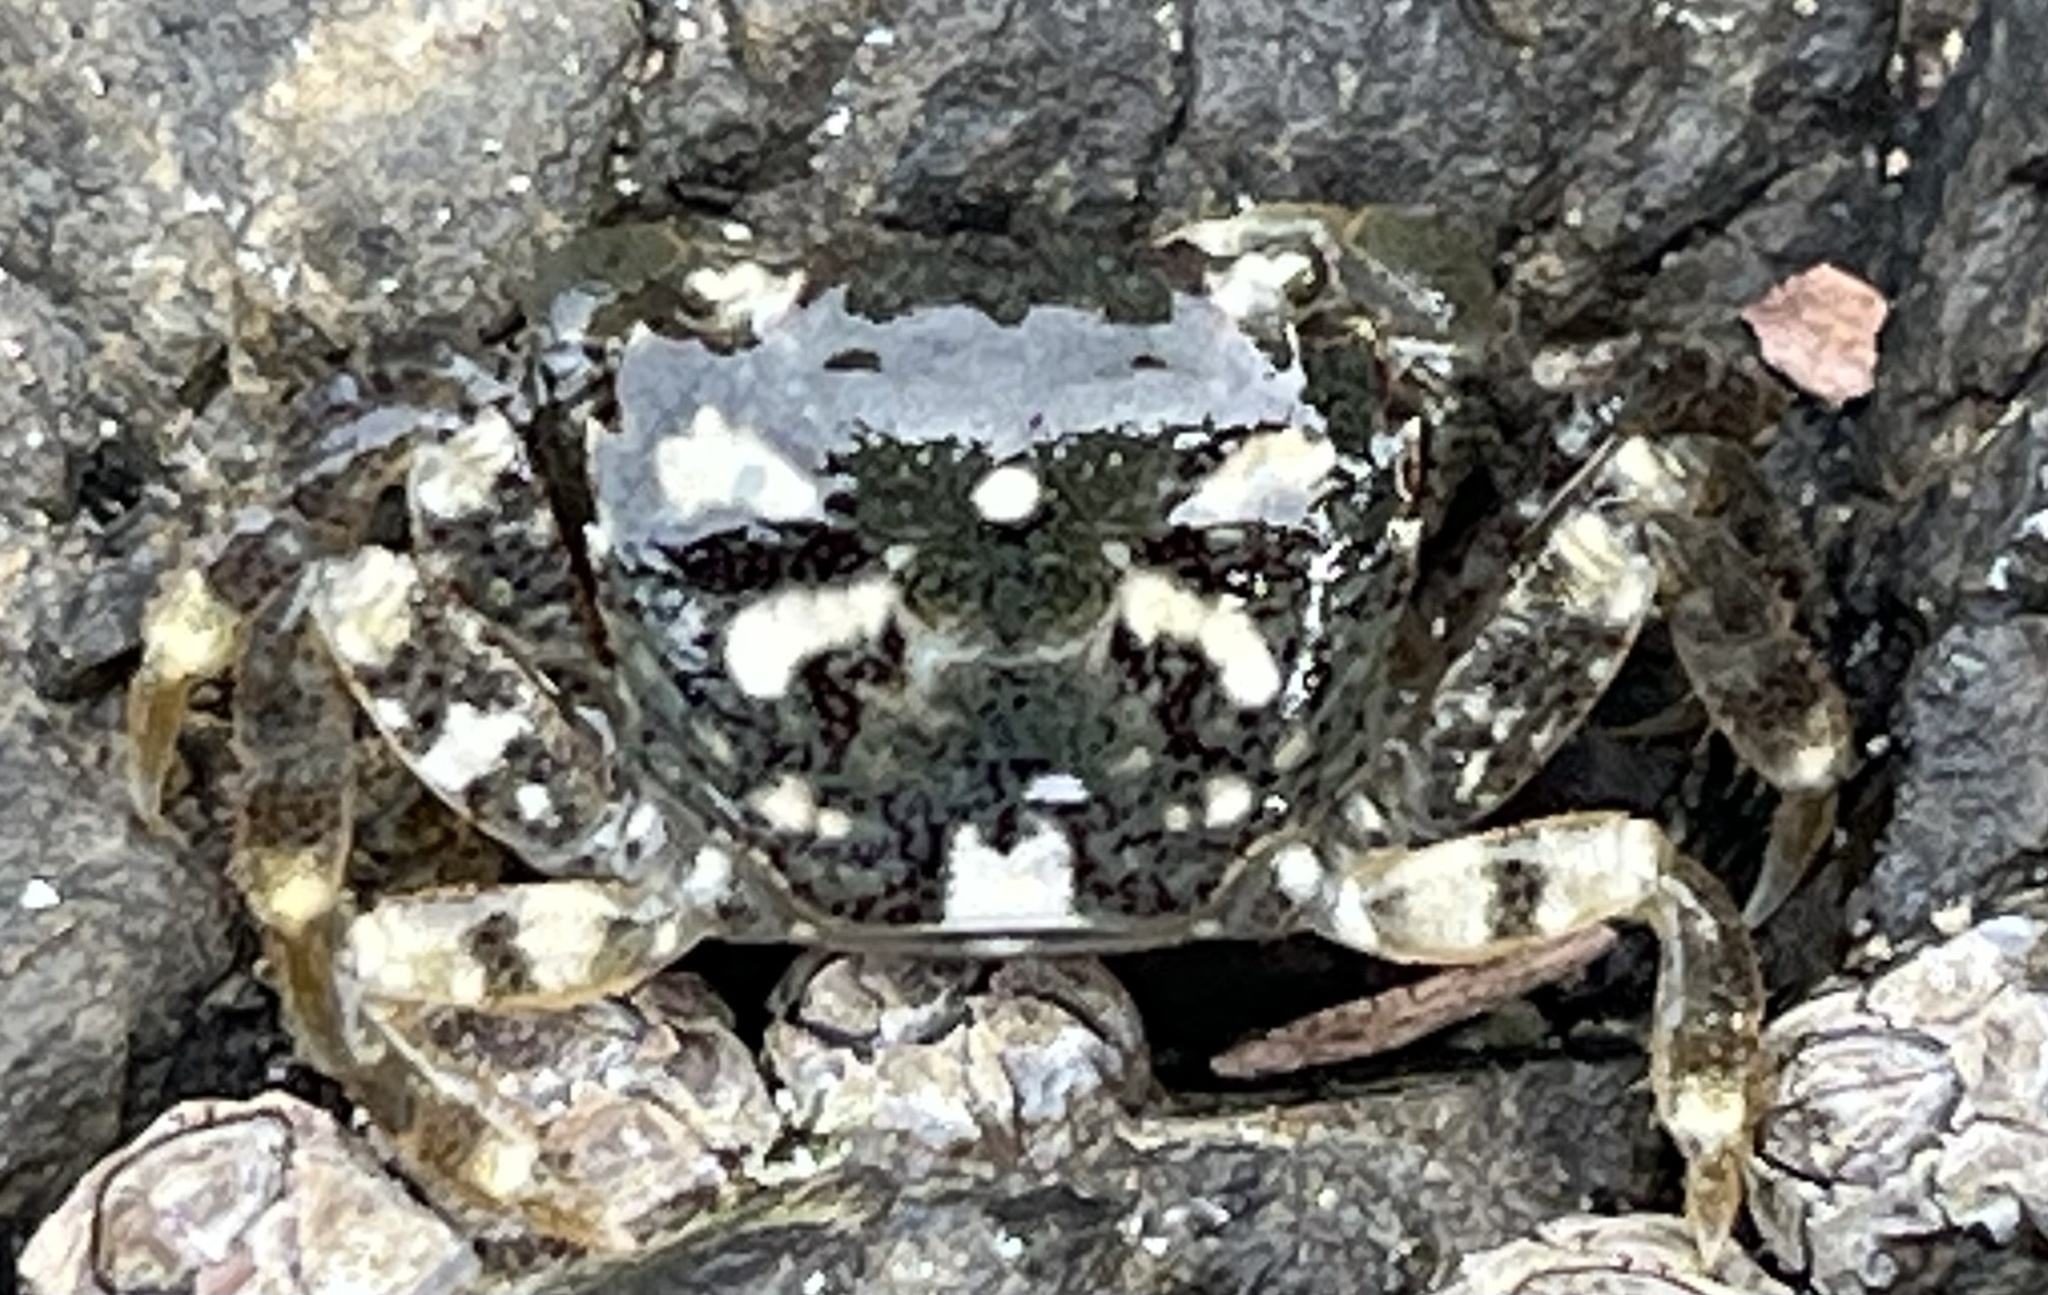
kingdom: Animalia
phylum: Arthropoda
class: Malacostraca
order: Decapoda
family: Varunidae
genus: Hemigrapsus
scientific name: Hemigrapsus oregonensis
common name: Yellow shore crab
